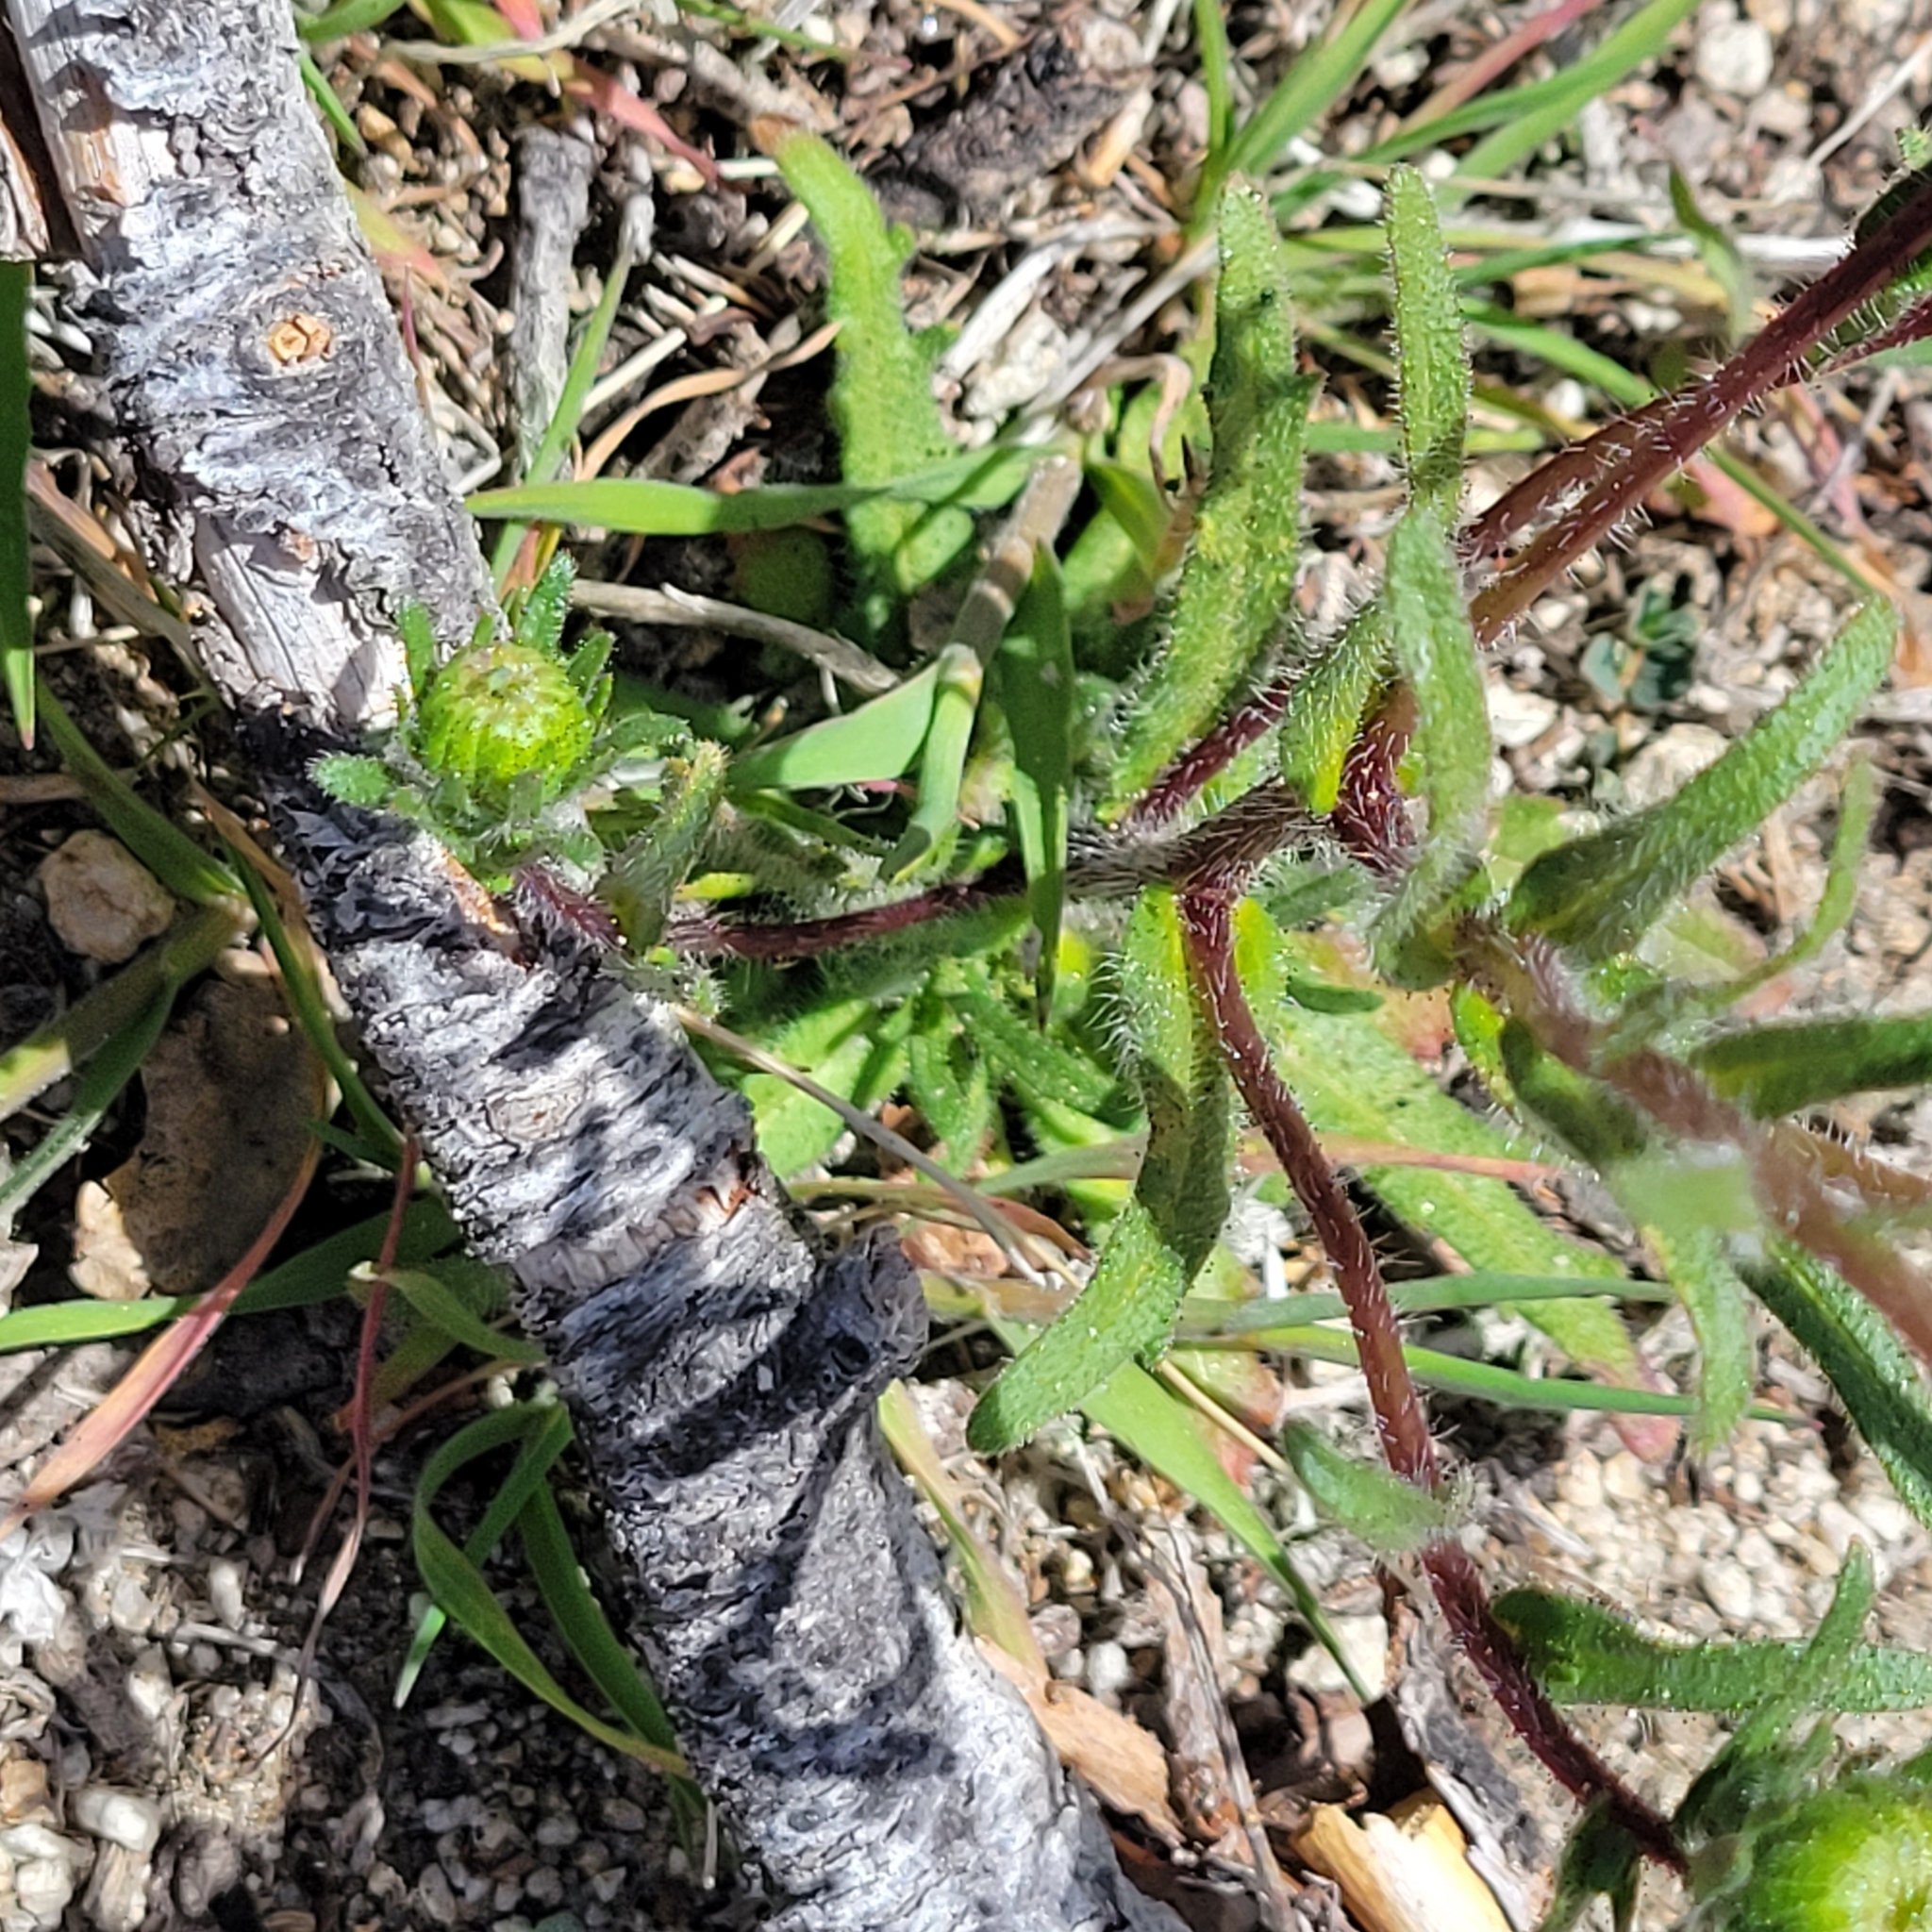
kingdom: Plantae
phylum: Tracheophyta
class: Magnoliopsida
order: Asterales
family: Asteraceae
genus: Layia
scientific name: Layia glandulosa
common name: White layia
